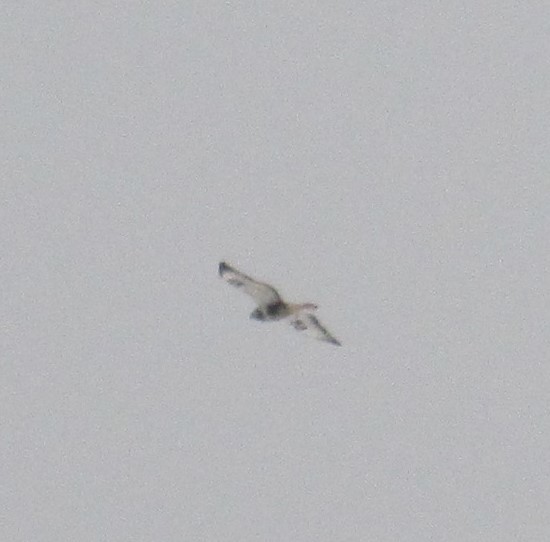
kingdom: Animalia
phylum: Chordata
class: Aves
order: Accipitriformes
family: Accipitridae
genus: Buteo
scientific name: Buteo lagopus
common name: Rough-legged buzzard
